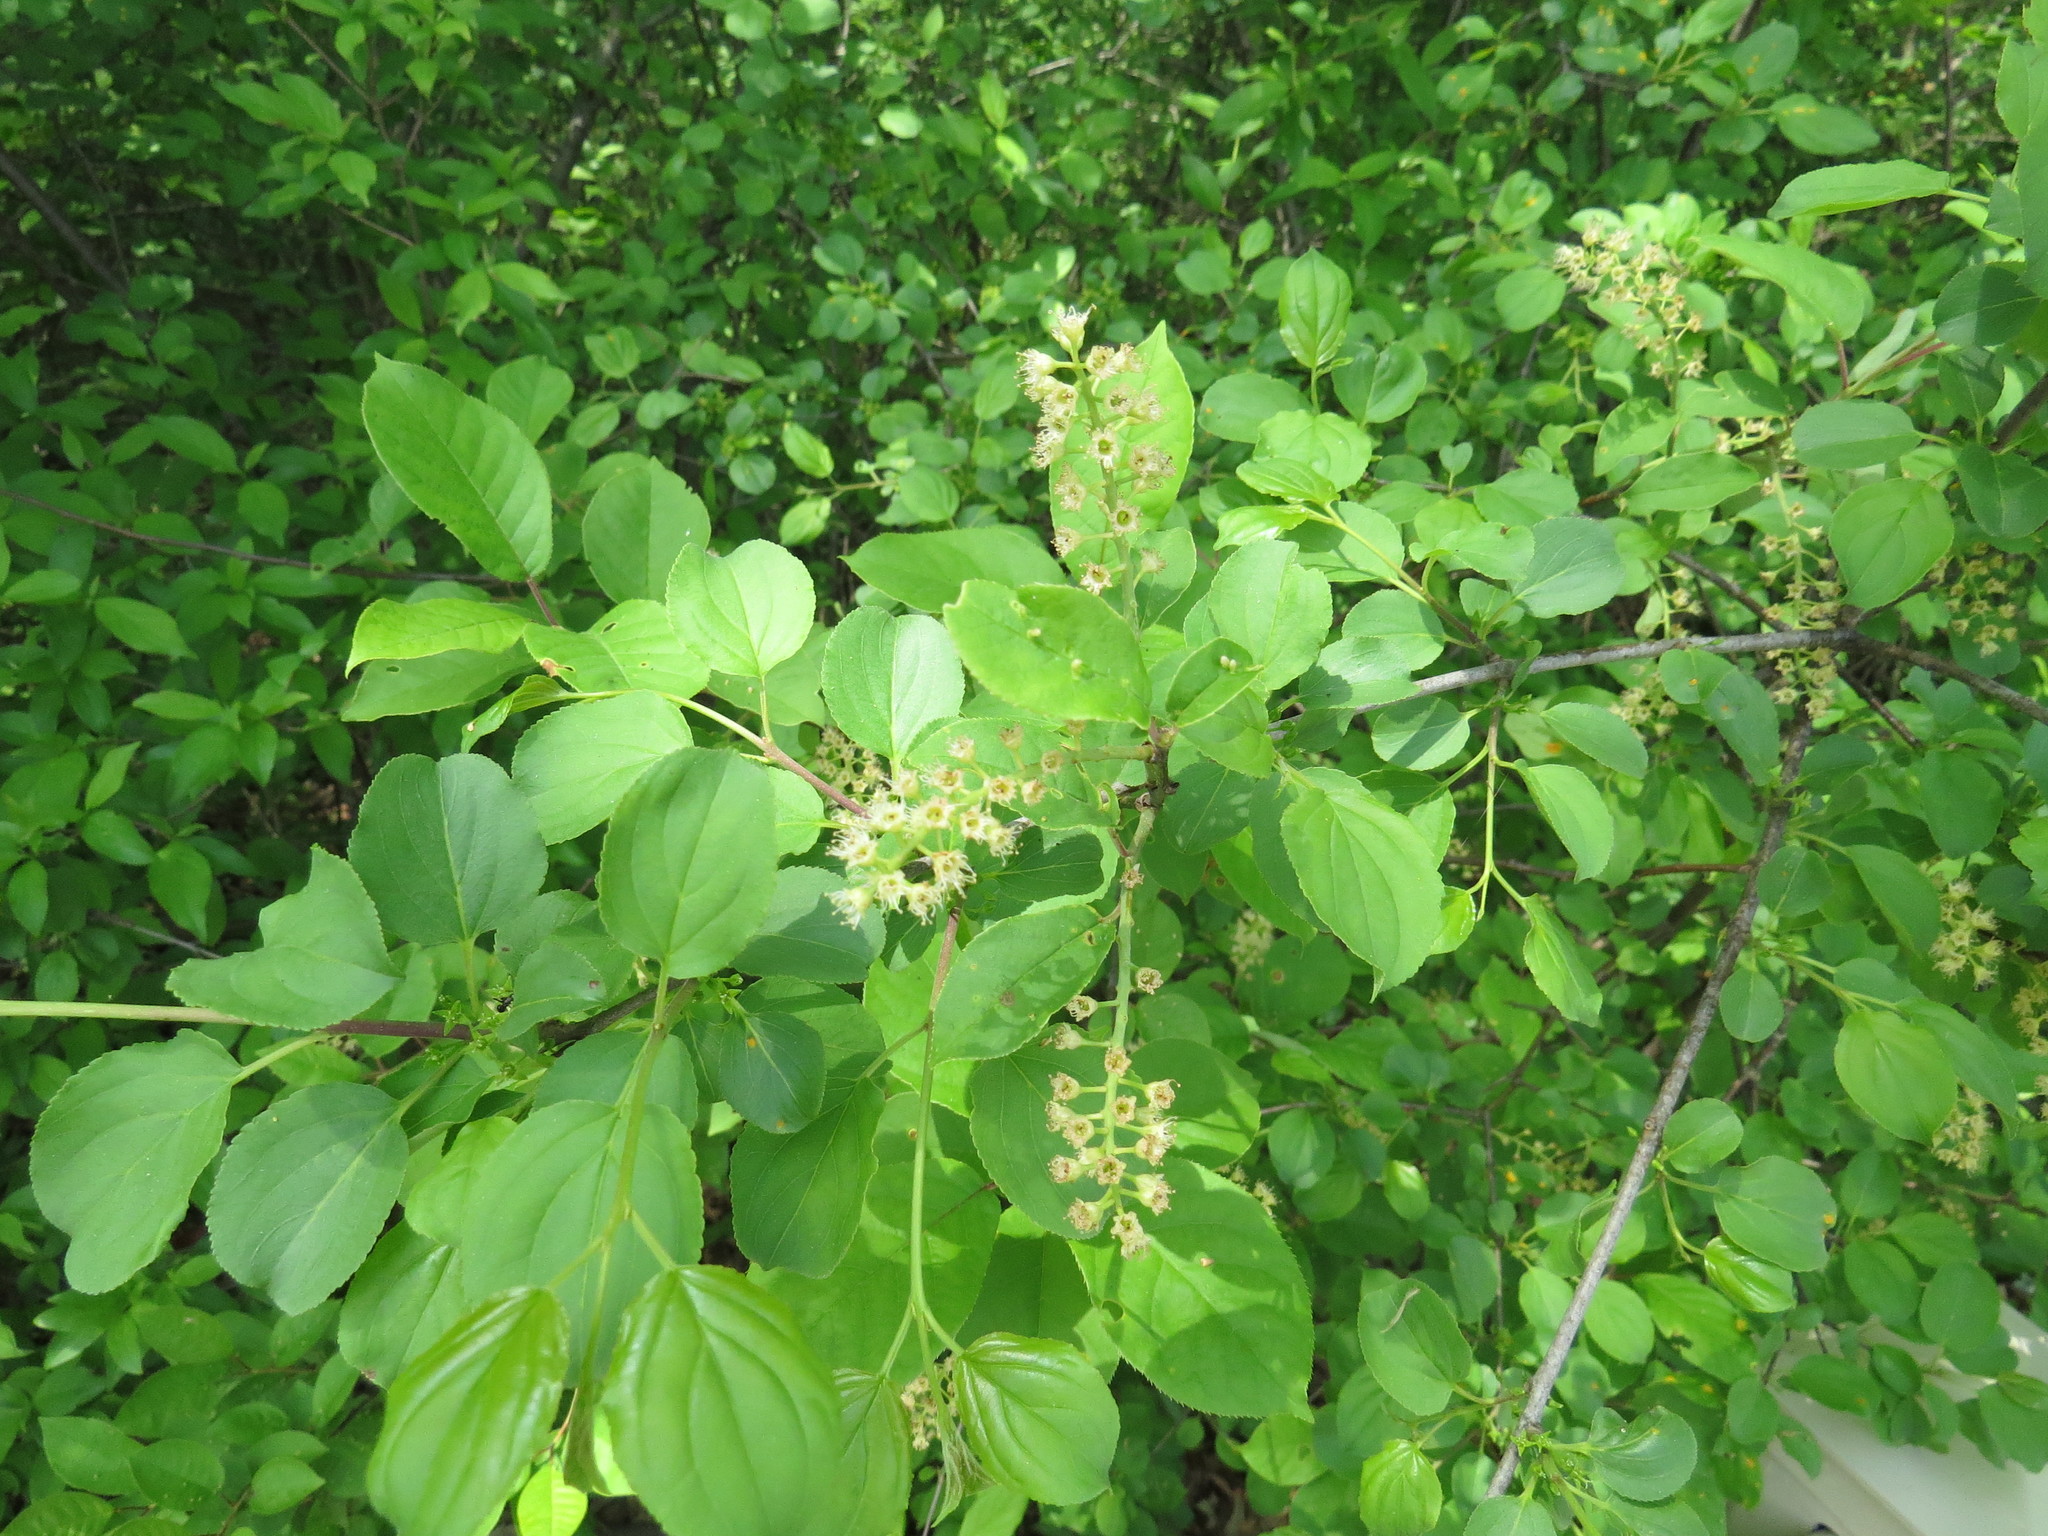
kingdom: Plantae
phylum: Tracheophyta
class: Magnoliopsida
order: Rosales
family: Rosaceae
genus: Prunus
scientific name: Prunus virginiana
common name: Chokecherry
